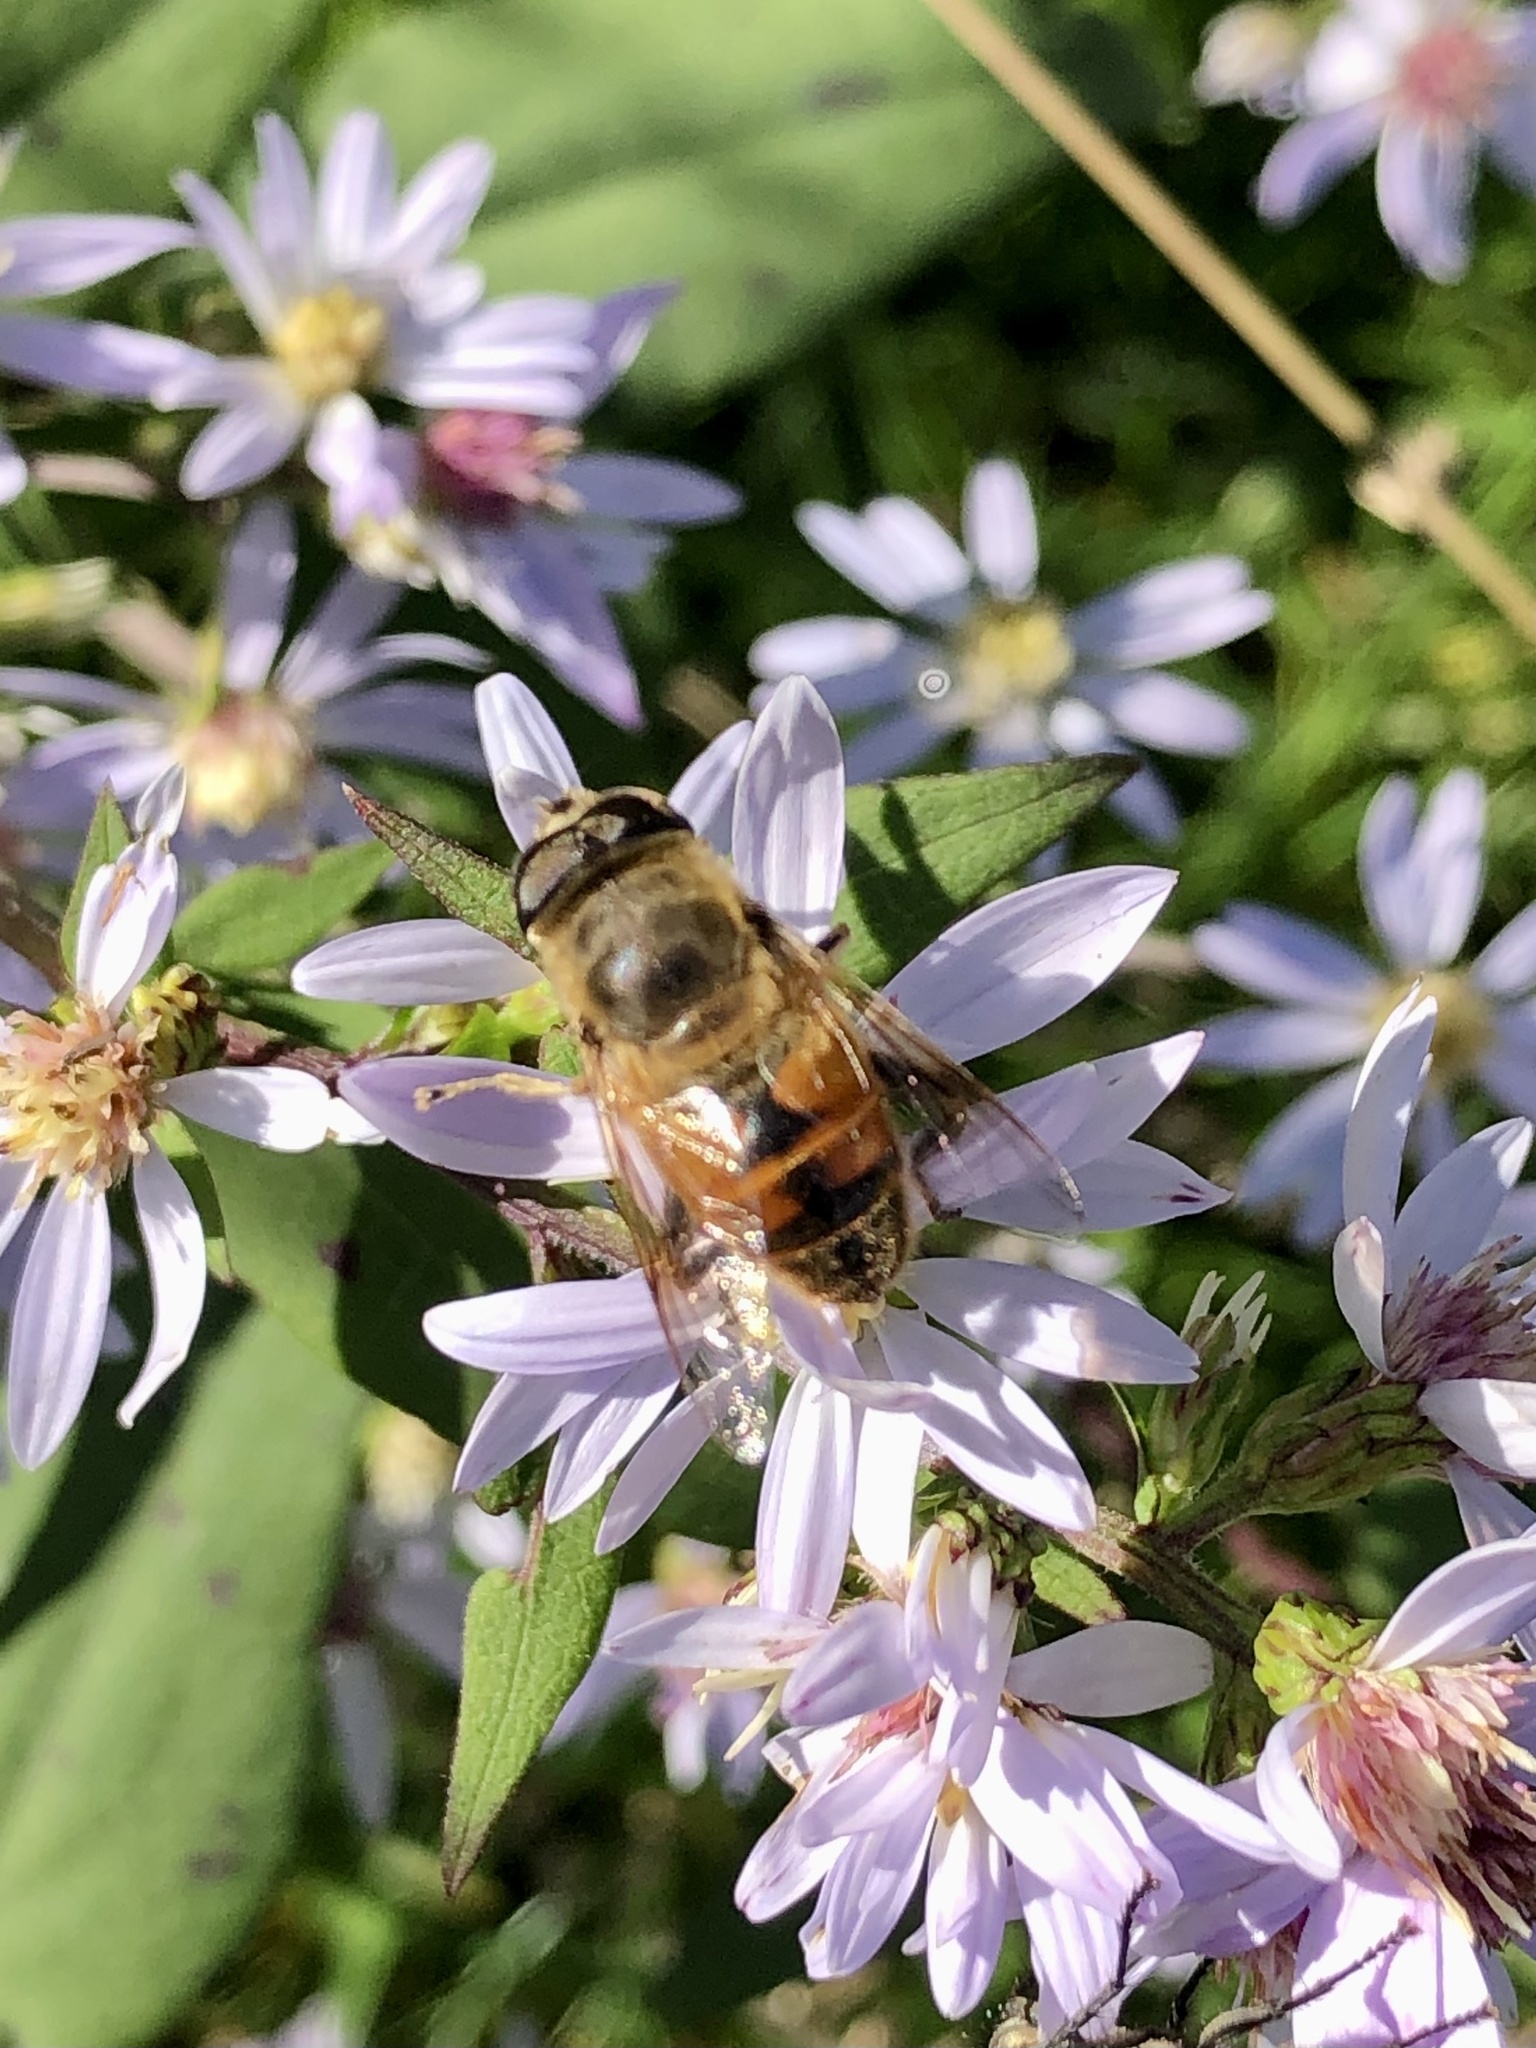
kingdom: Animalia
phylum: Arthropoda
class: Insecta
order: Diptera
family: Syrphidae
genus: Eristalis
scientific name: Eristalis tenax
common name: Drone fly
